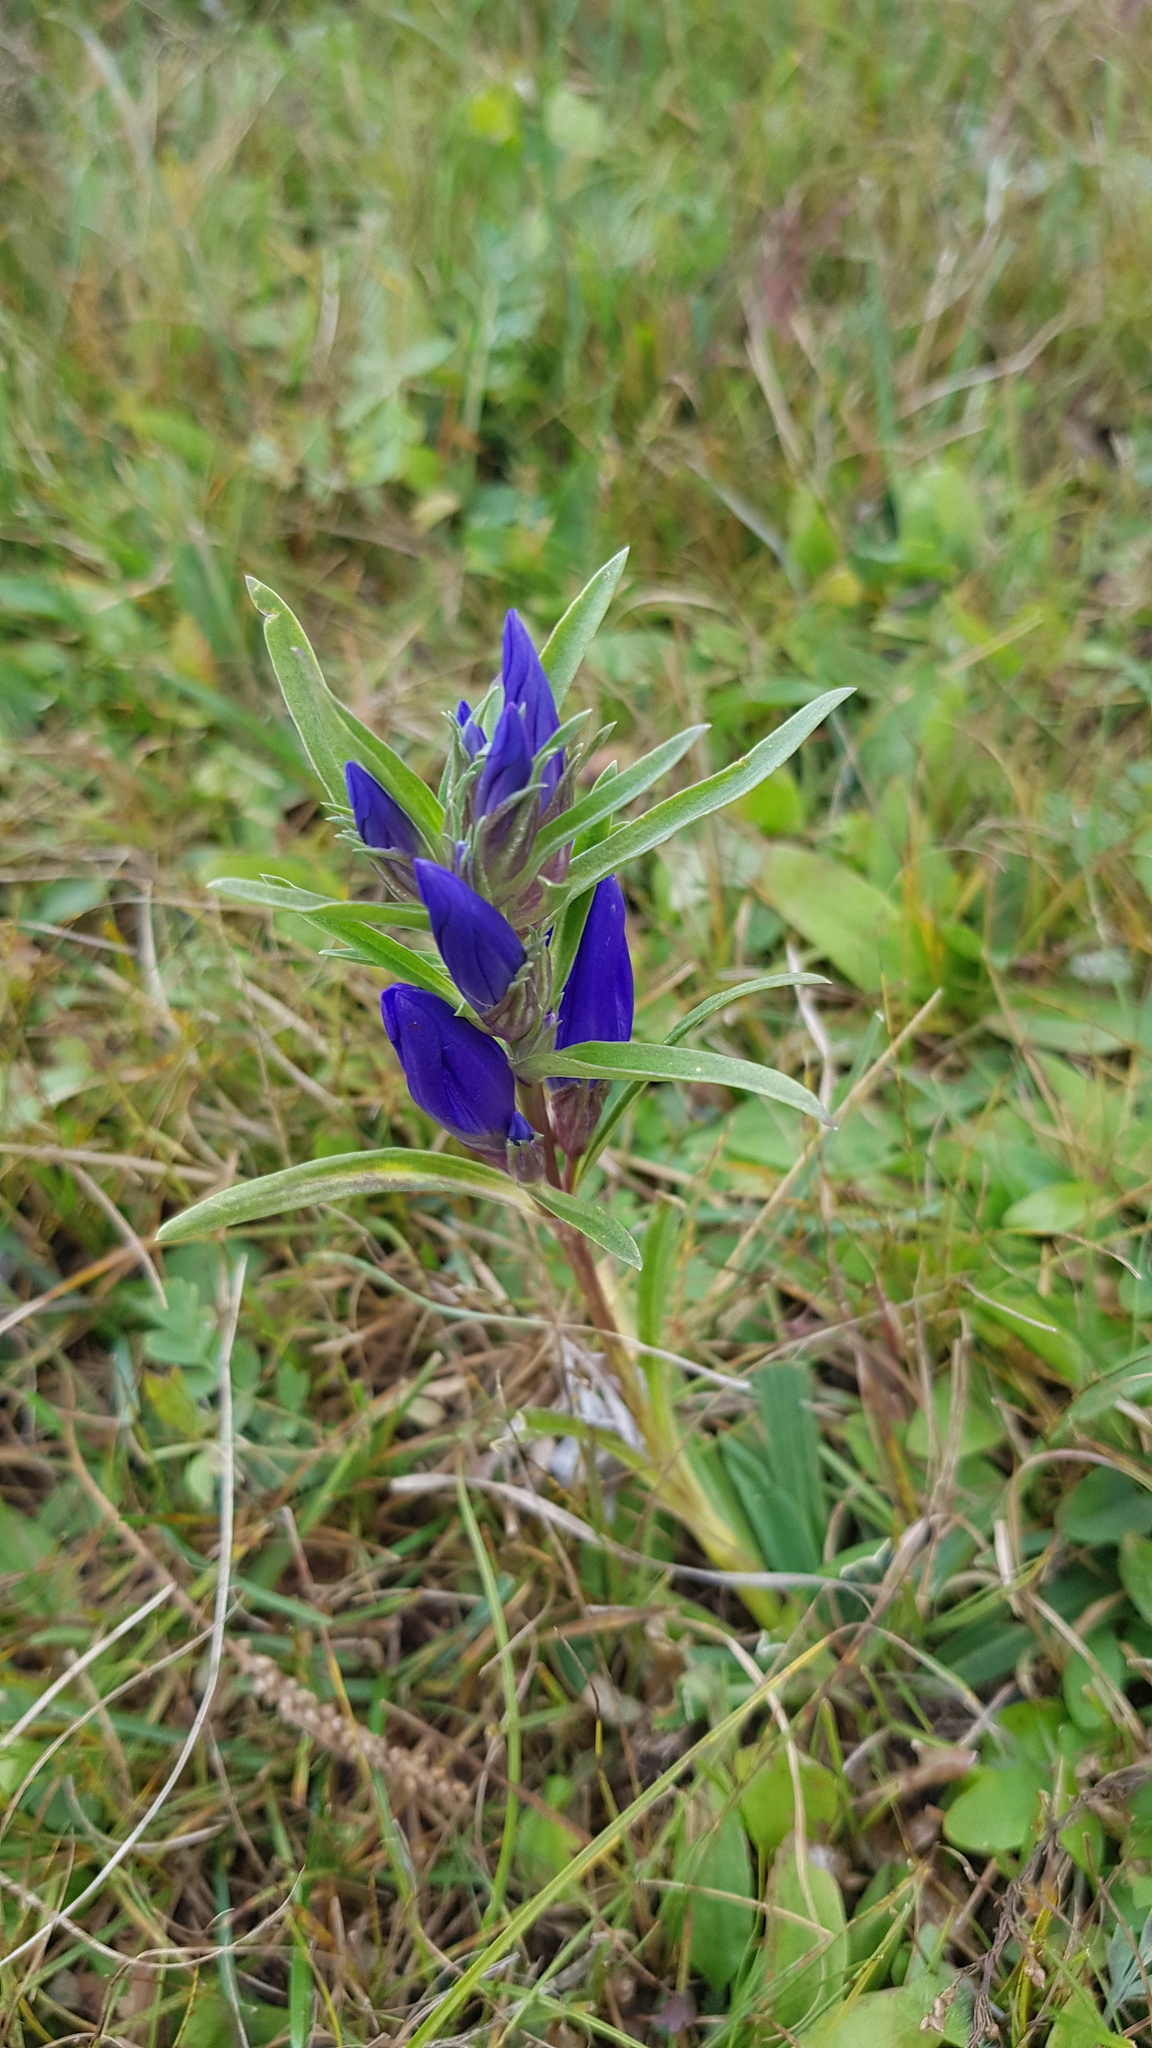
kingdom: Plantae
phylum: Tracheophyta
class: Magnoliopsida
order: Gentianales
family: Gentianaceae
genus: Gentiana
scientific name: Gentiana decumbens
